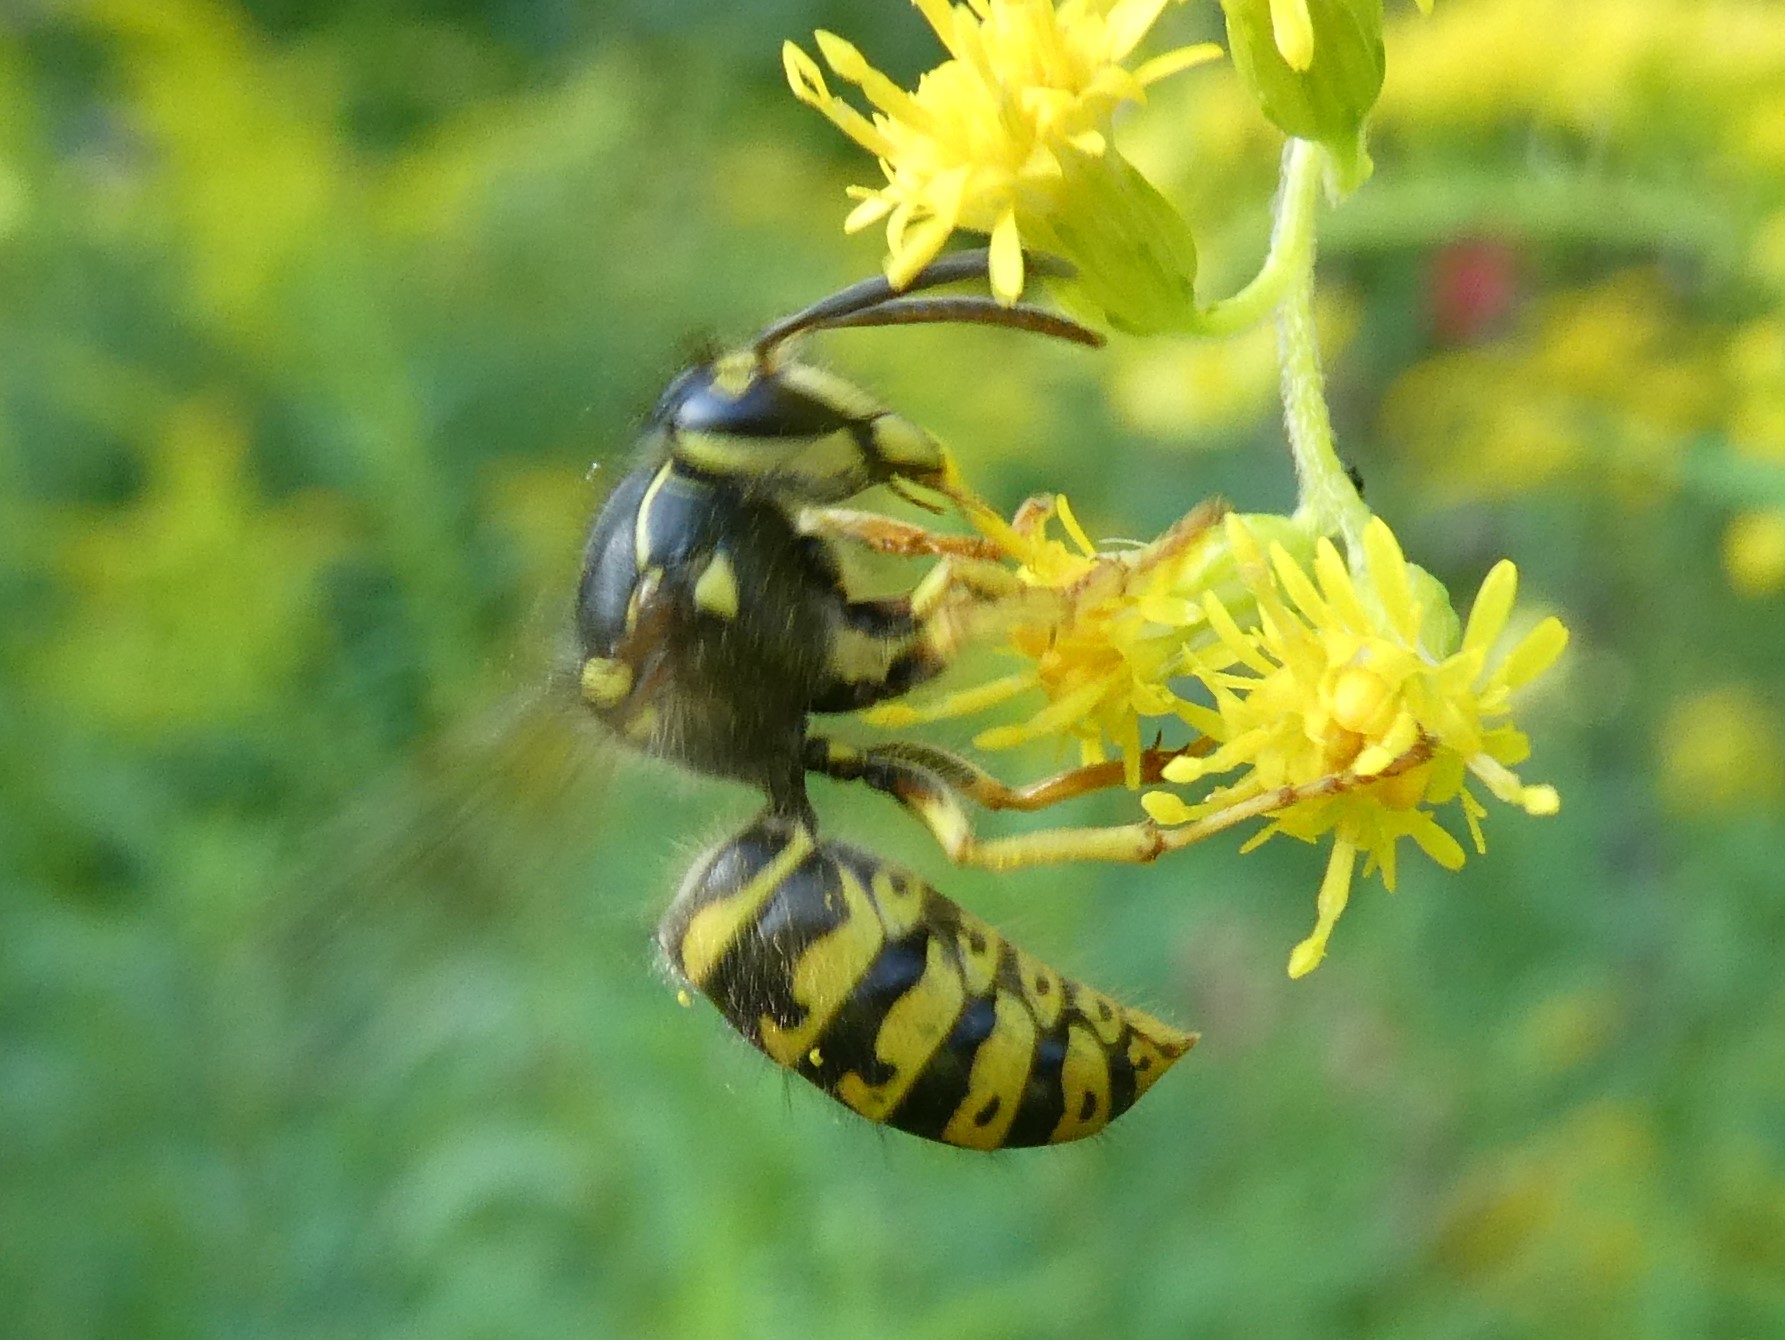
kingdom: Animalia
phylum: Arthropoda
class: Insecta
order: Hymenoptera
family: Vespidae
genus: Dolichovespula
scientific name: Dolichovespula arenaria
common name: Aerial yellowjacket
